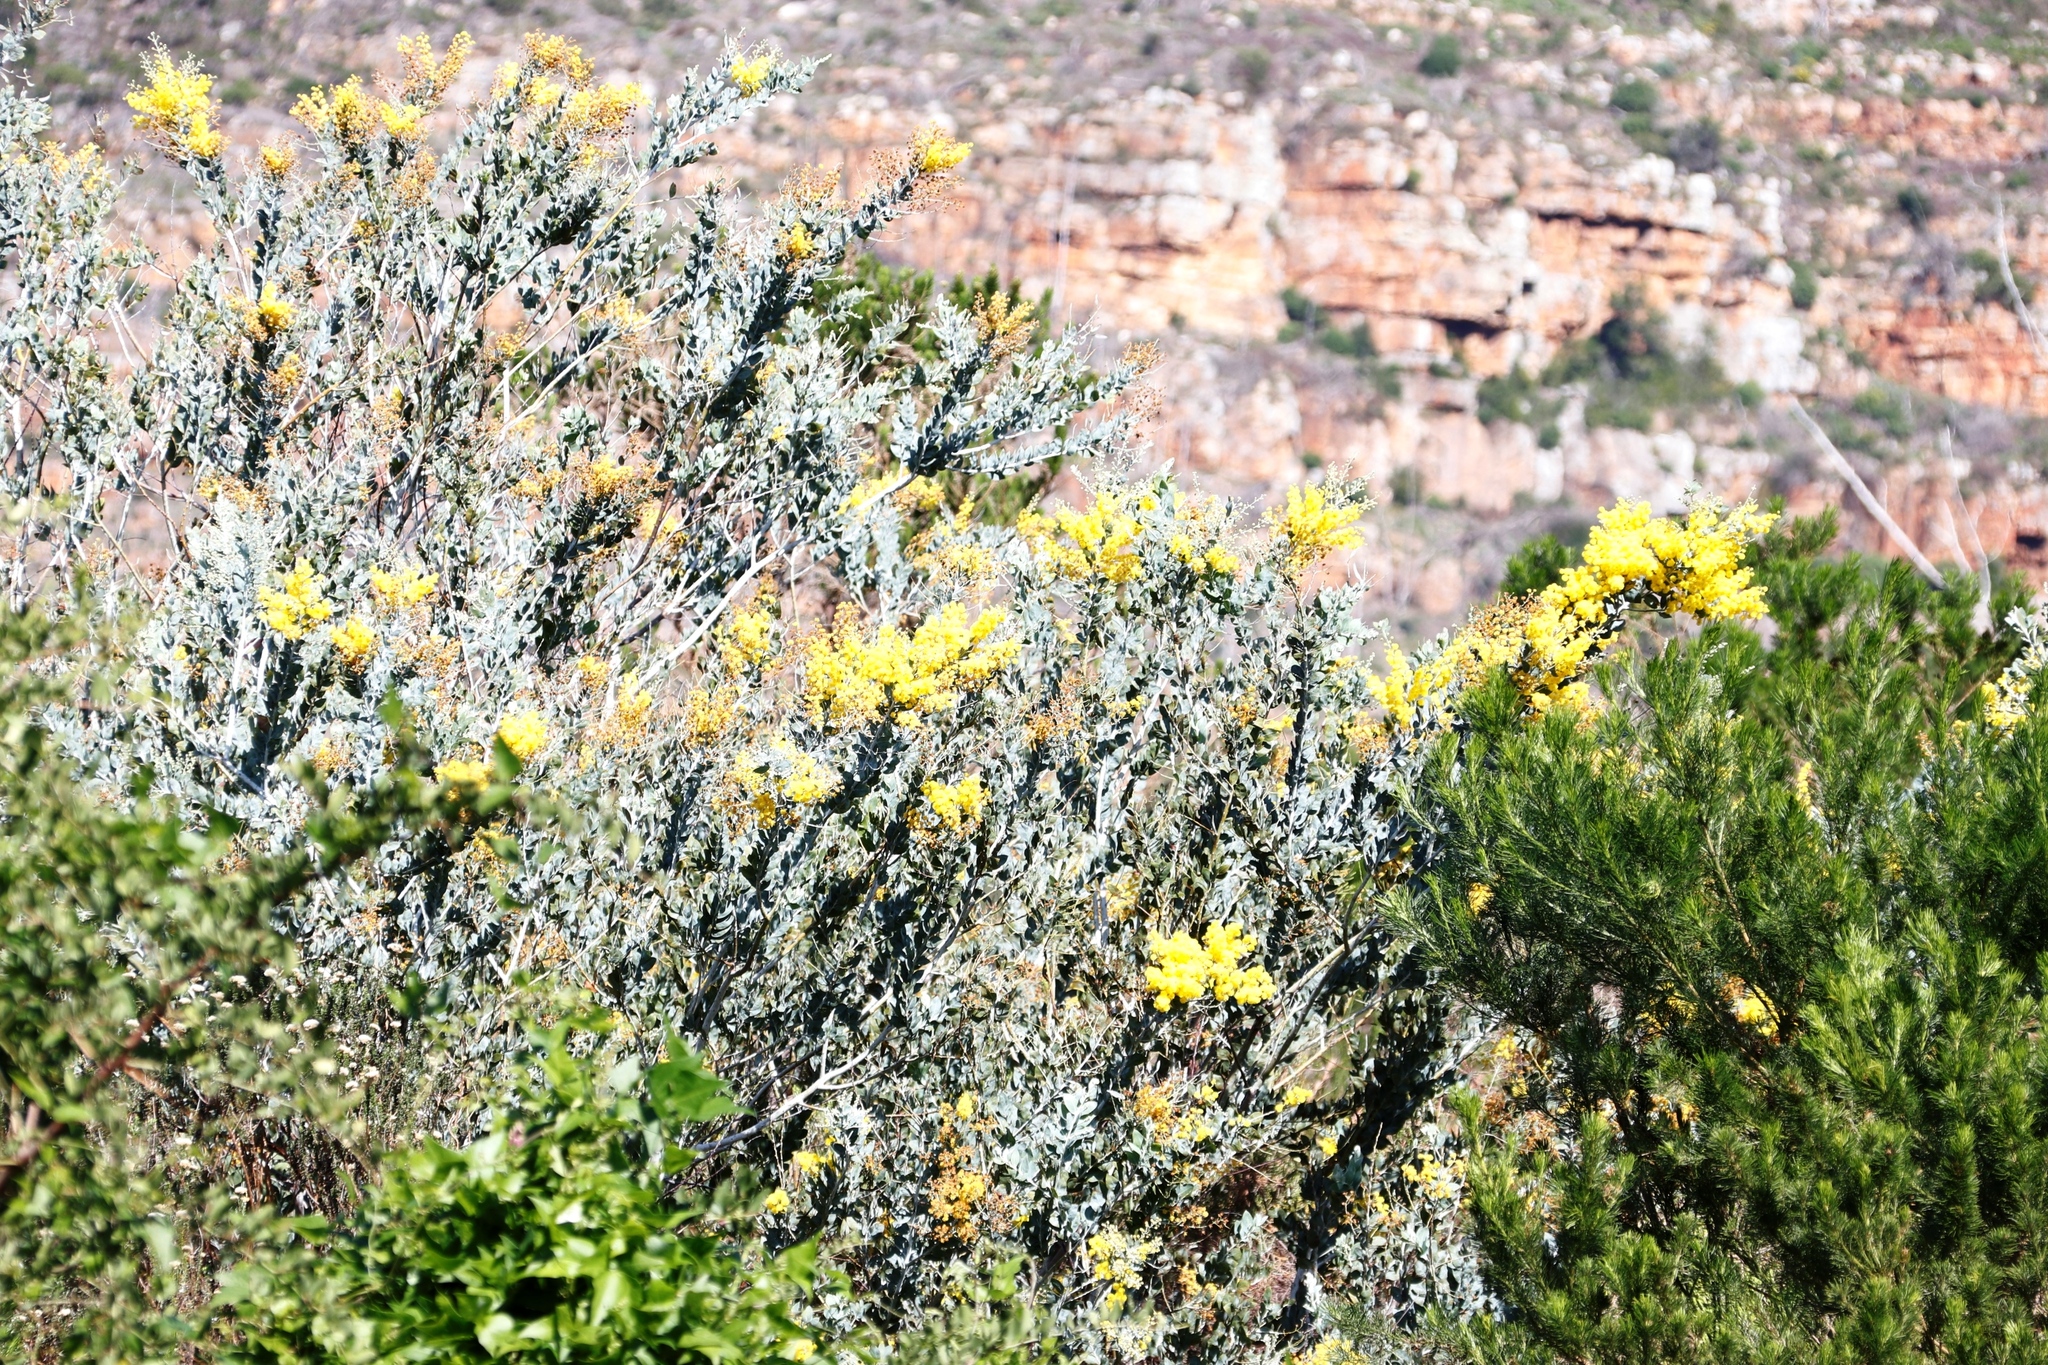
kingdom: Plantae
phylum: Tracheophyta
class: Magnoliopsida
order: Fabales
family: Fabaceae
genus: Acacia
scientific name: Acacia podalyriifolia
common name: Pearl wattle
